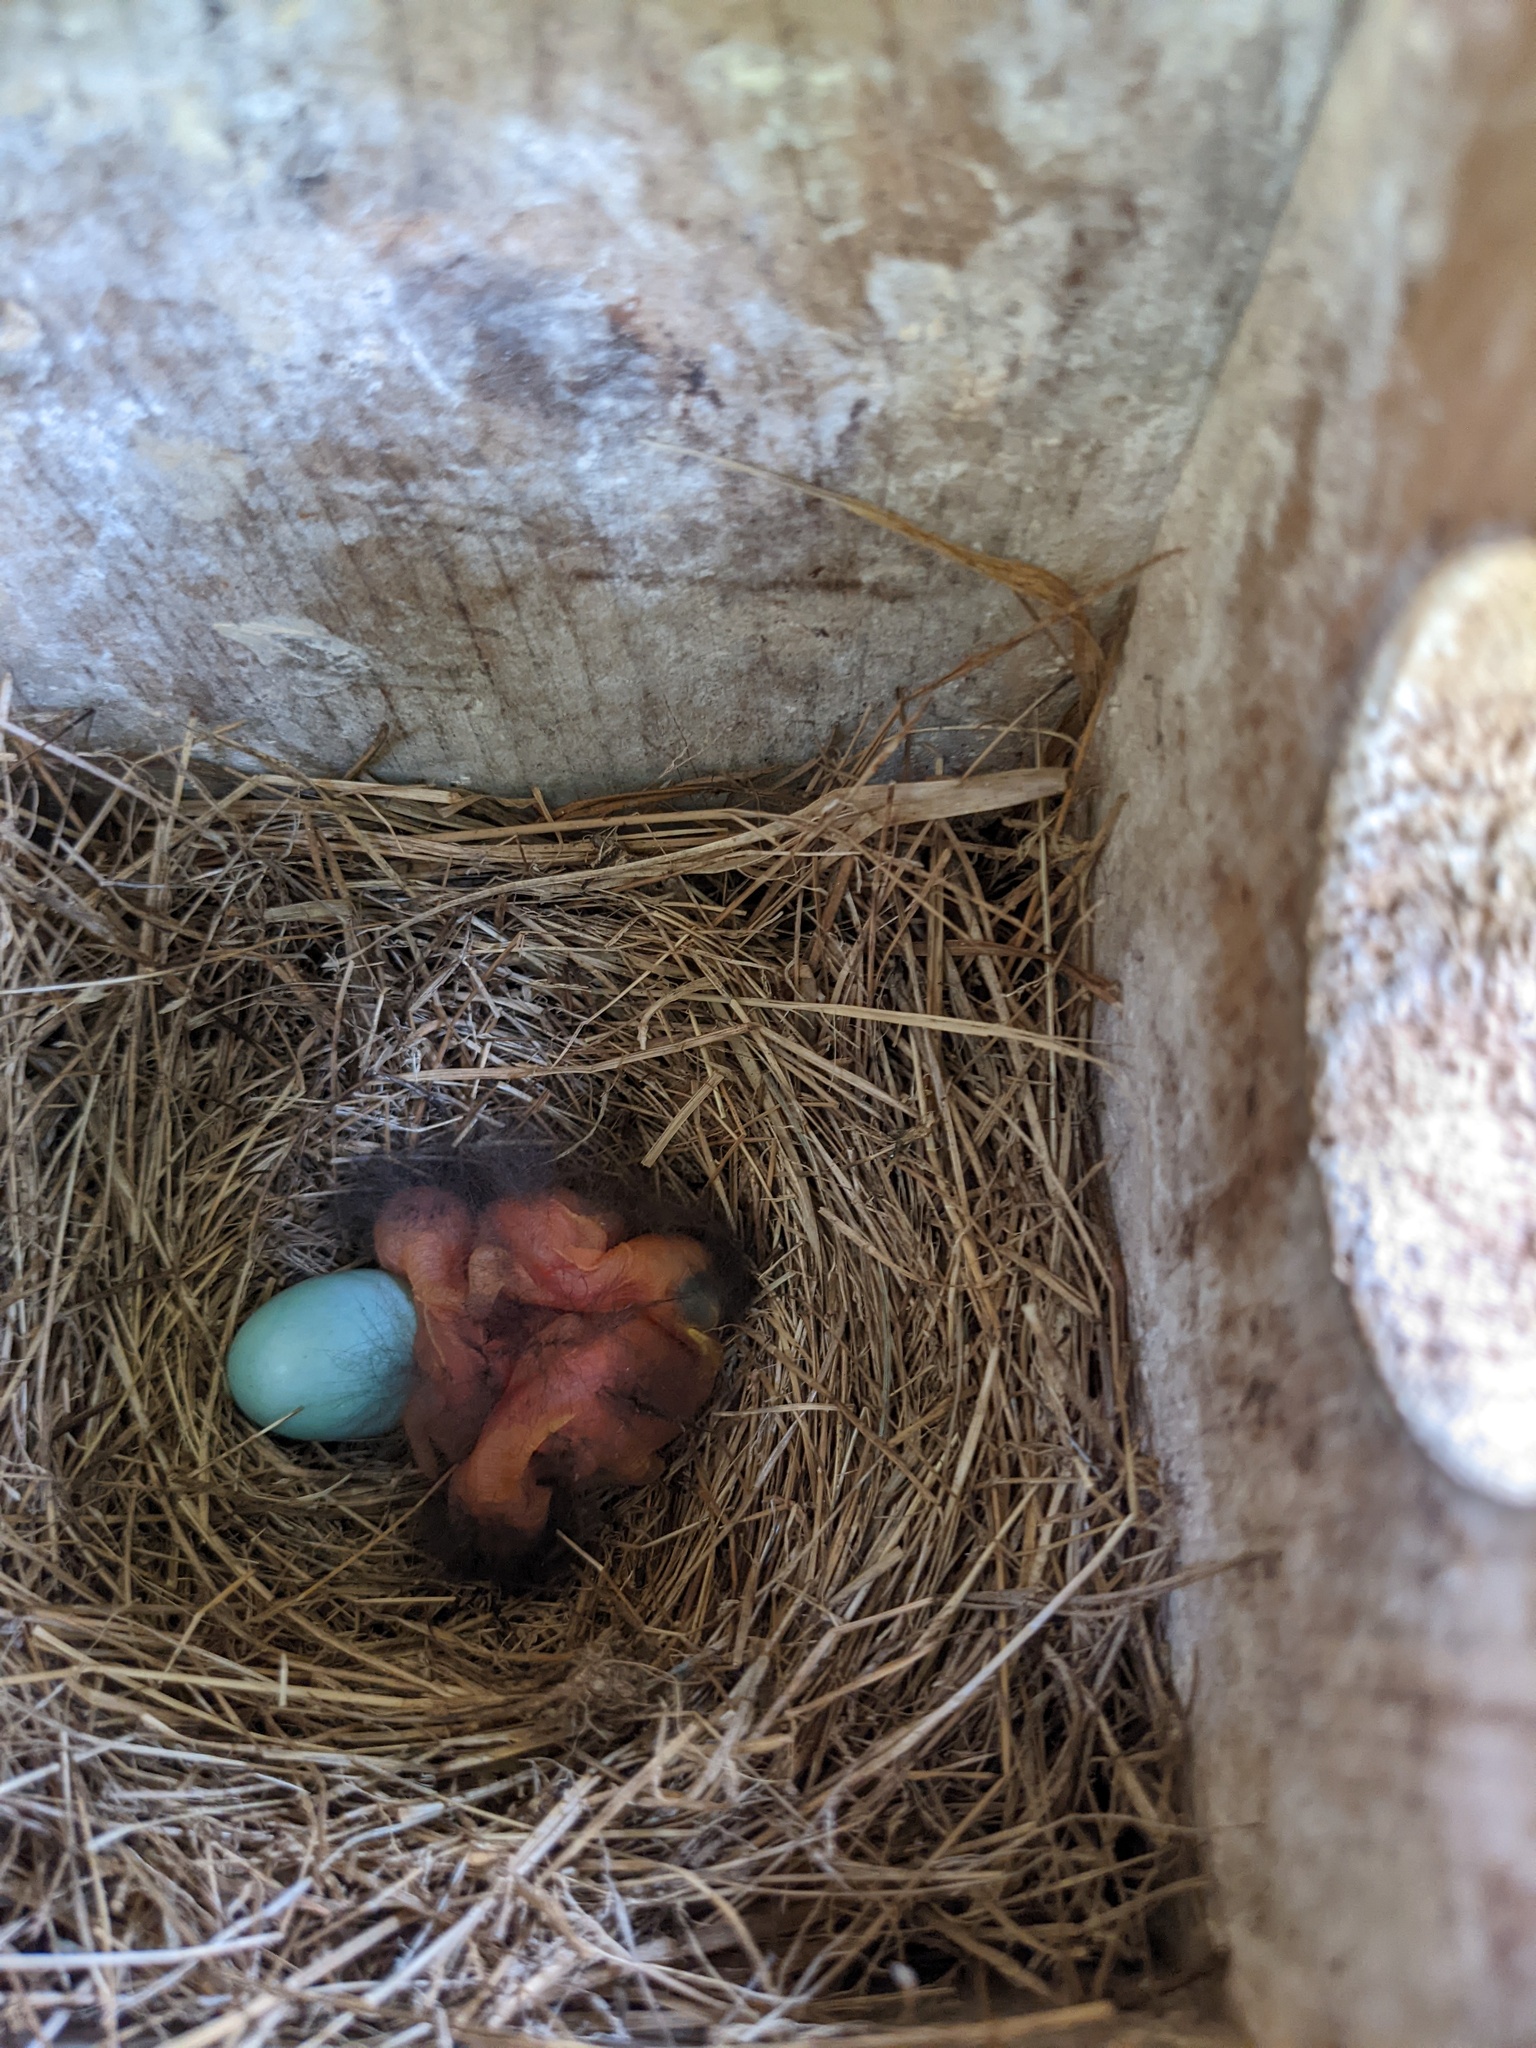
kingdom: Animalia
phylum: Chordata
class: Aves
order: Passeriformes
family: Turdidae
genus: Sialia
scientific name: Sialia sialis
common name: Eastern bluebird
